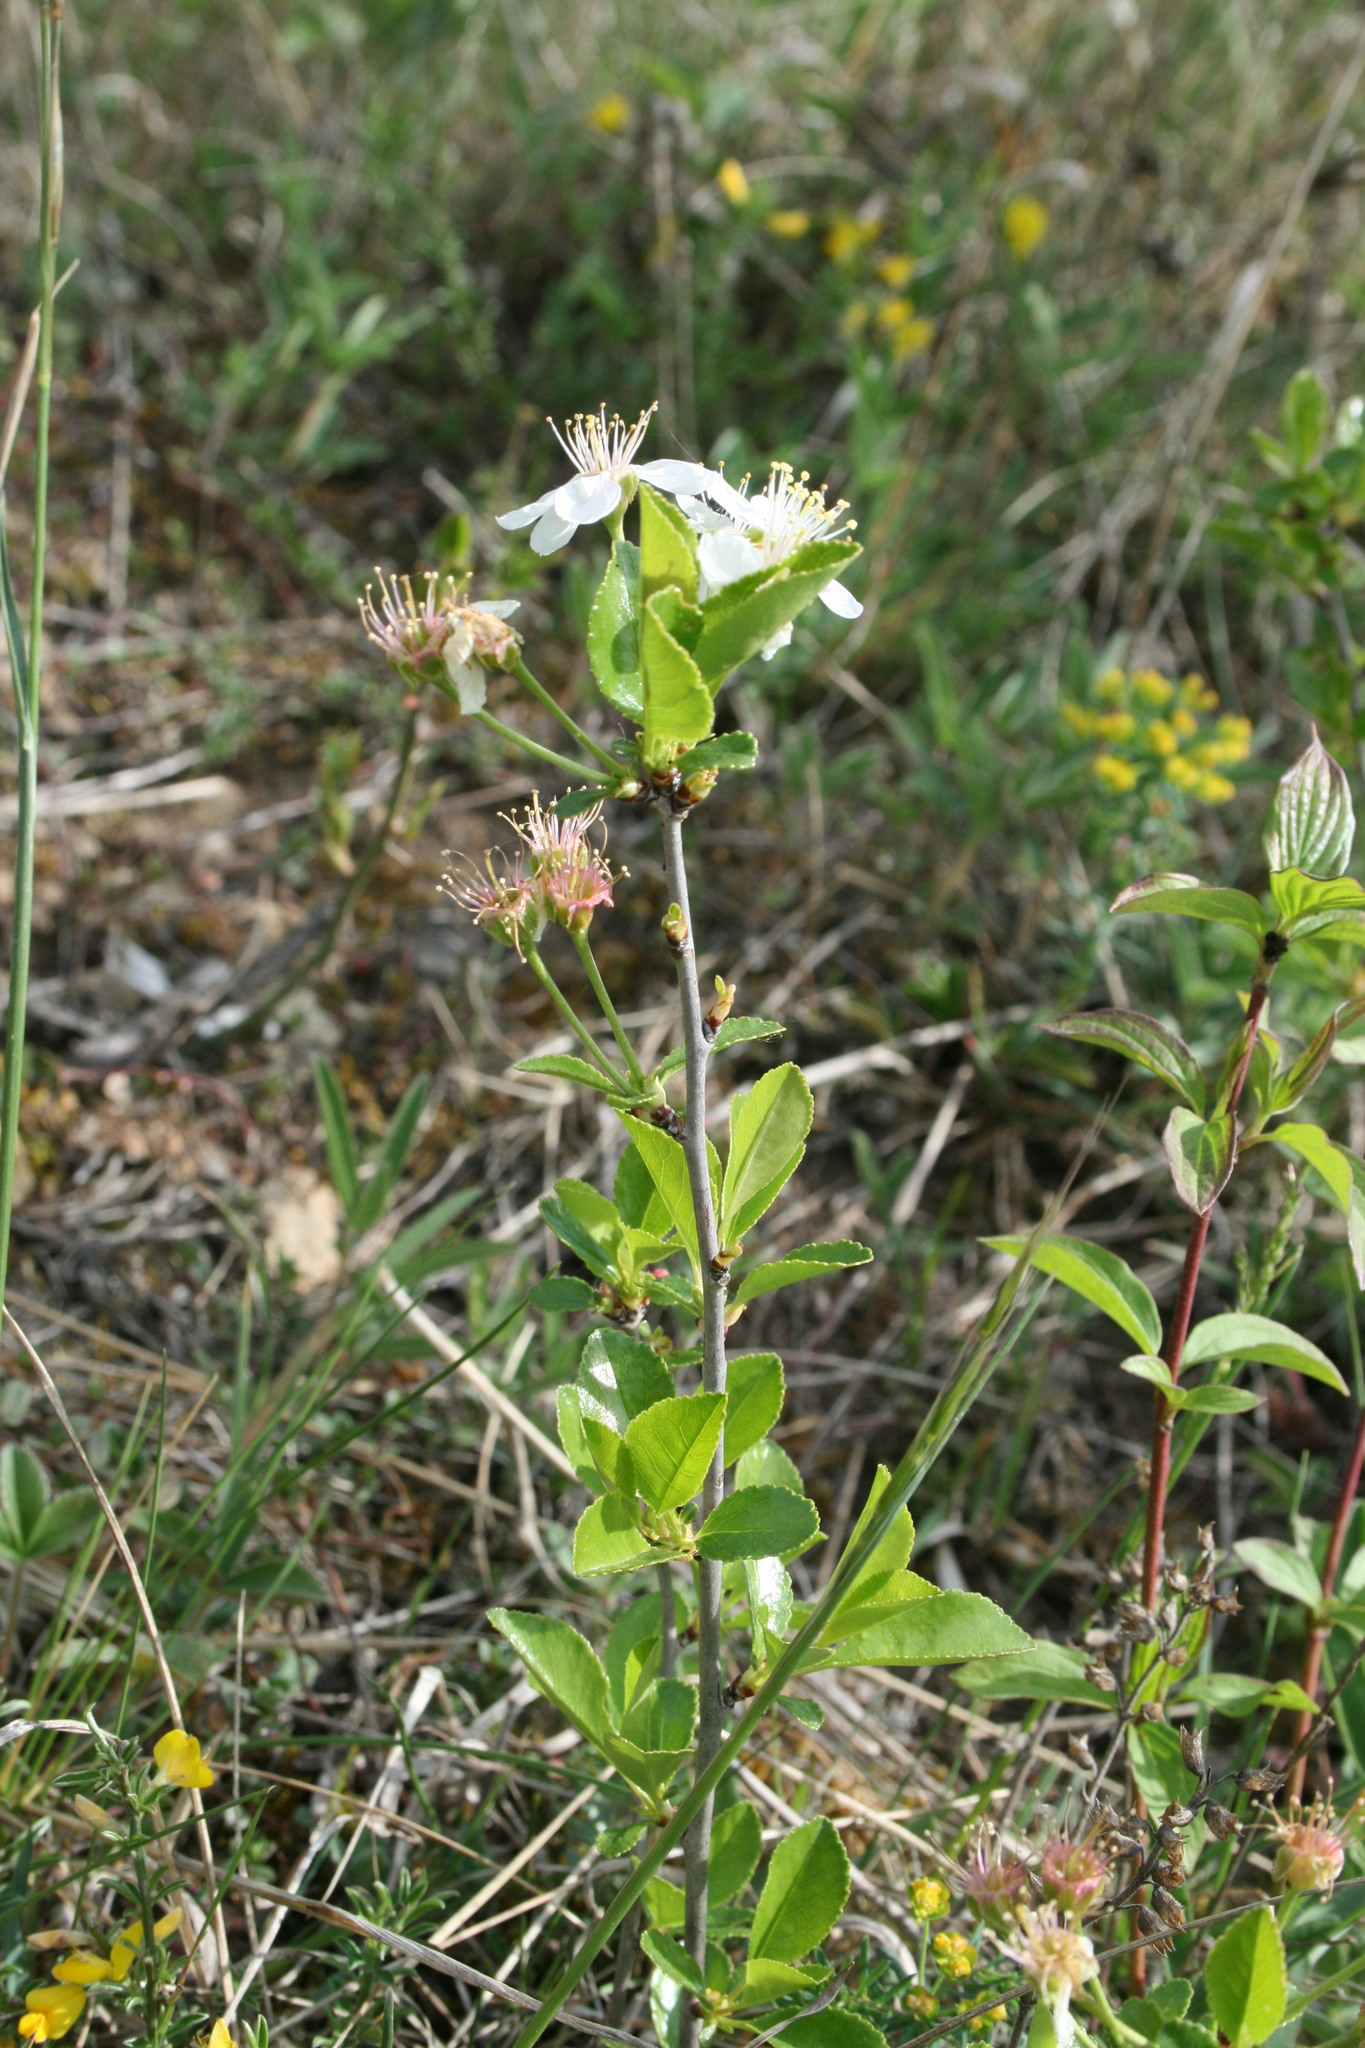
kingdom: Plantae
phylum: Tracheophyta
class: Magnoliopsida
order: Rosales
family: Rosaceae
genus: Prunus
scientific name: Prunus fruticosa
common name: European dwarf cherry
